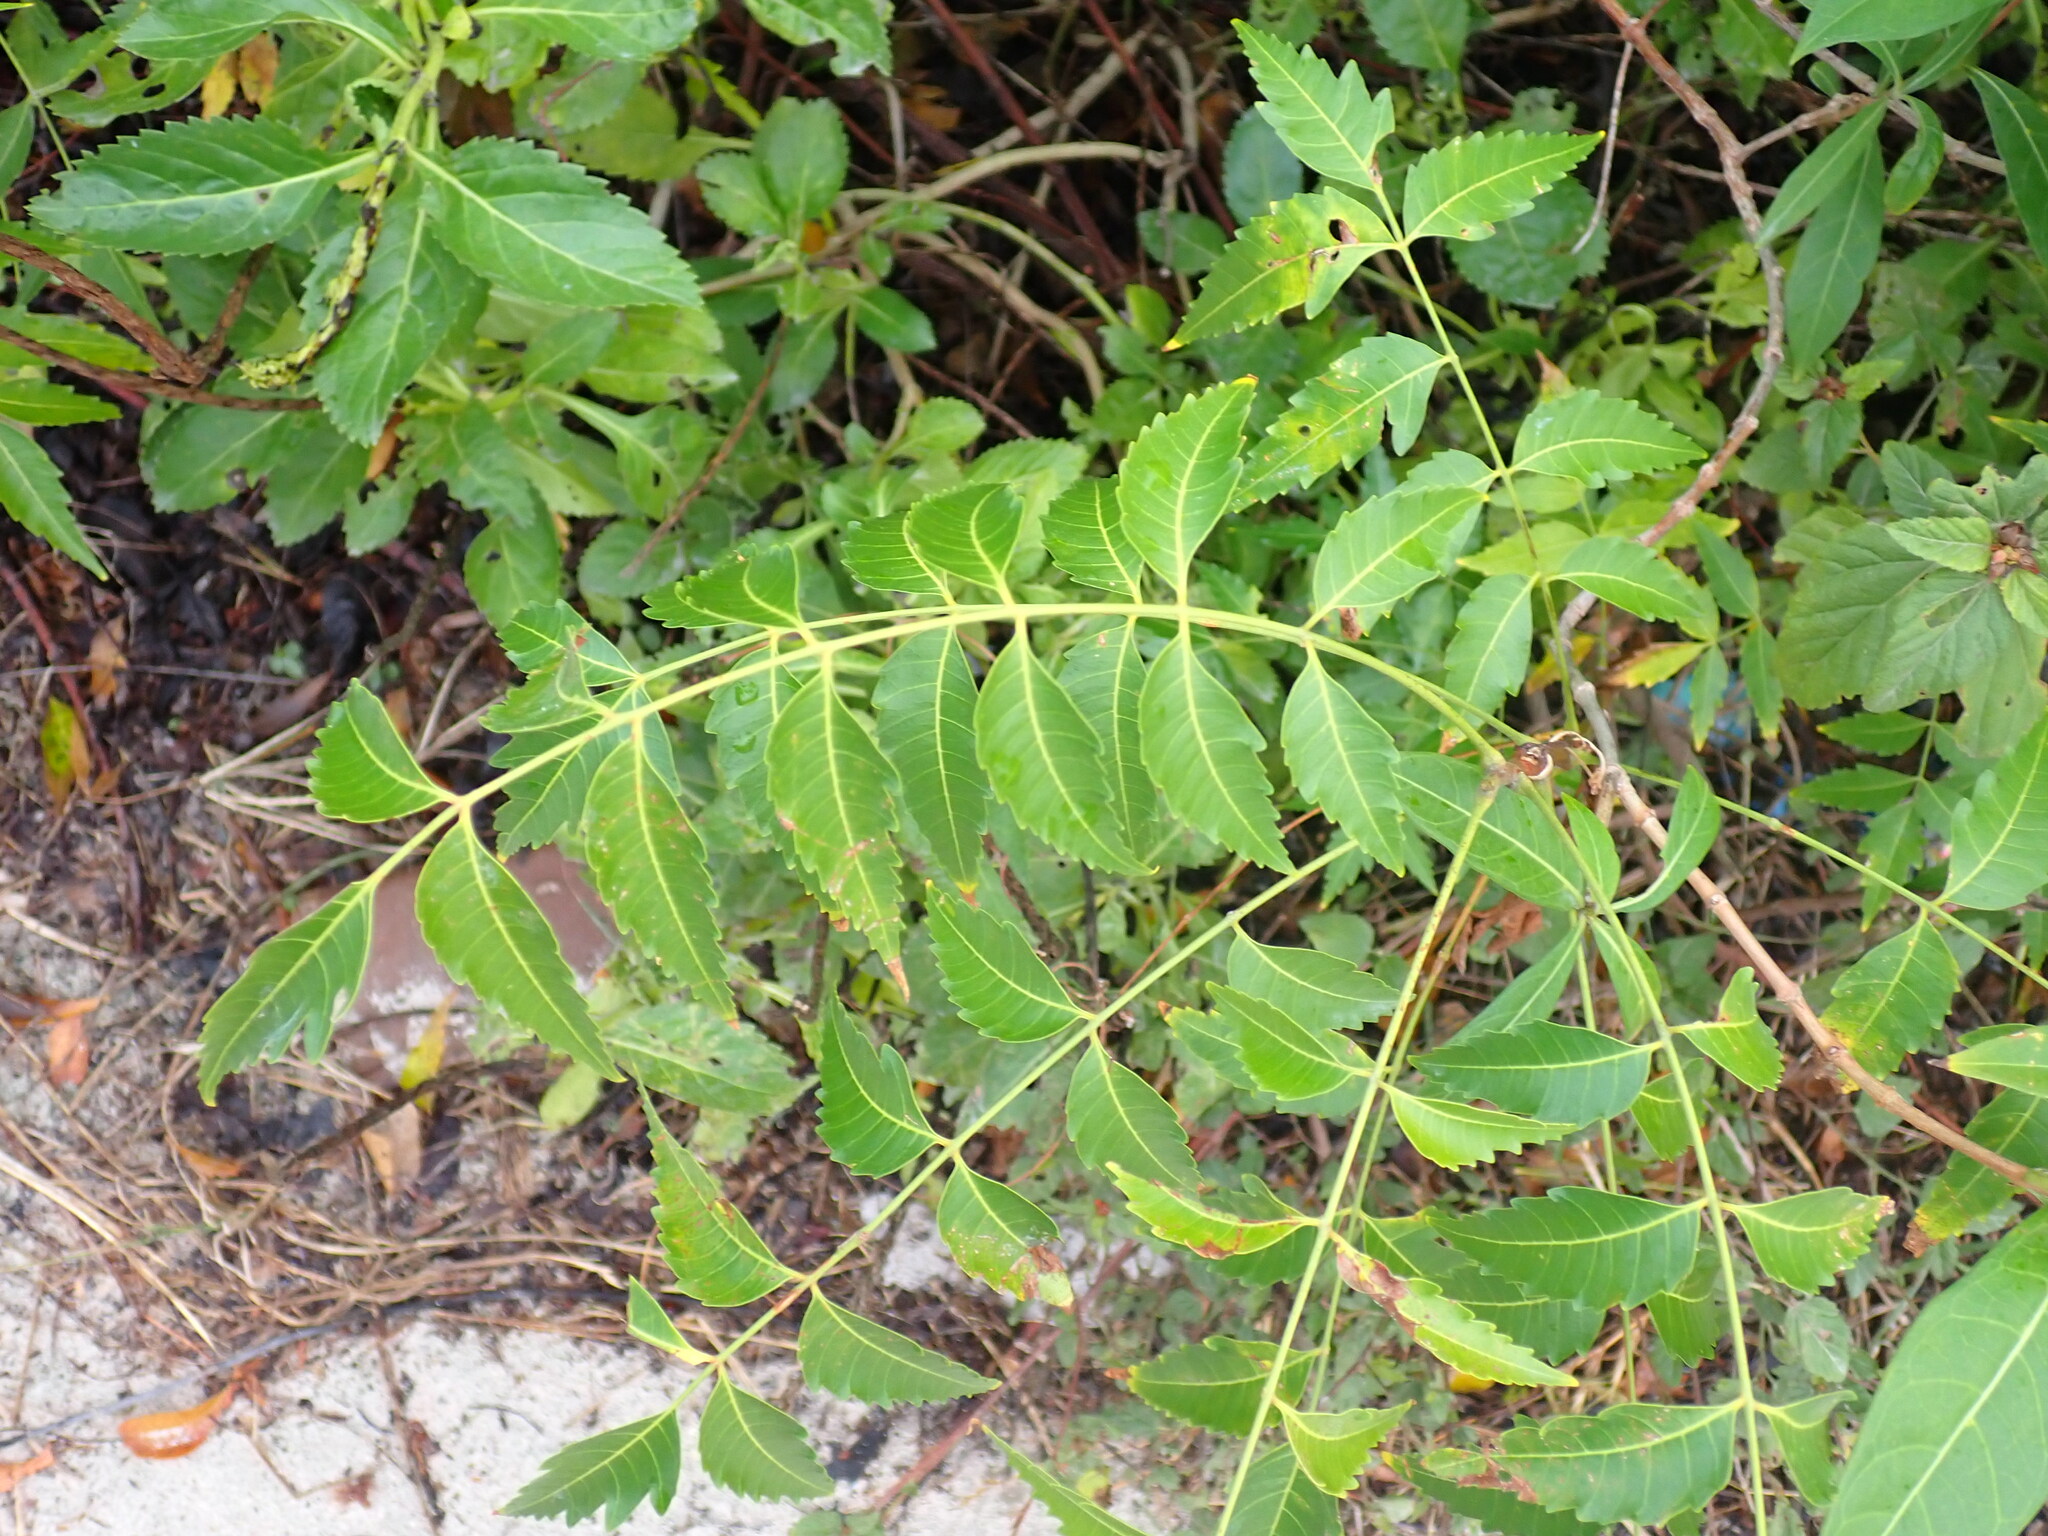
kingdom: Plantae
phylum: Tracheophyta
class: Magnoliopsida
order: Sapindales
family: Meliaceae
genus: Azadirachta
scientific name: Azadirachta indica
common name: Neem
